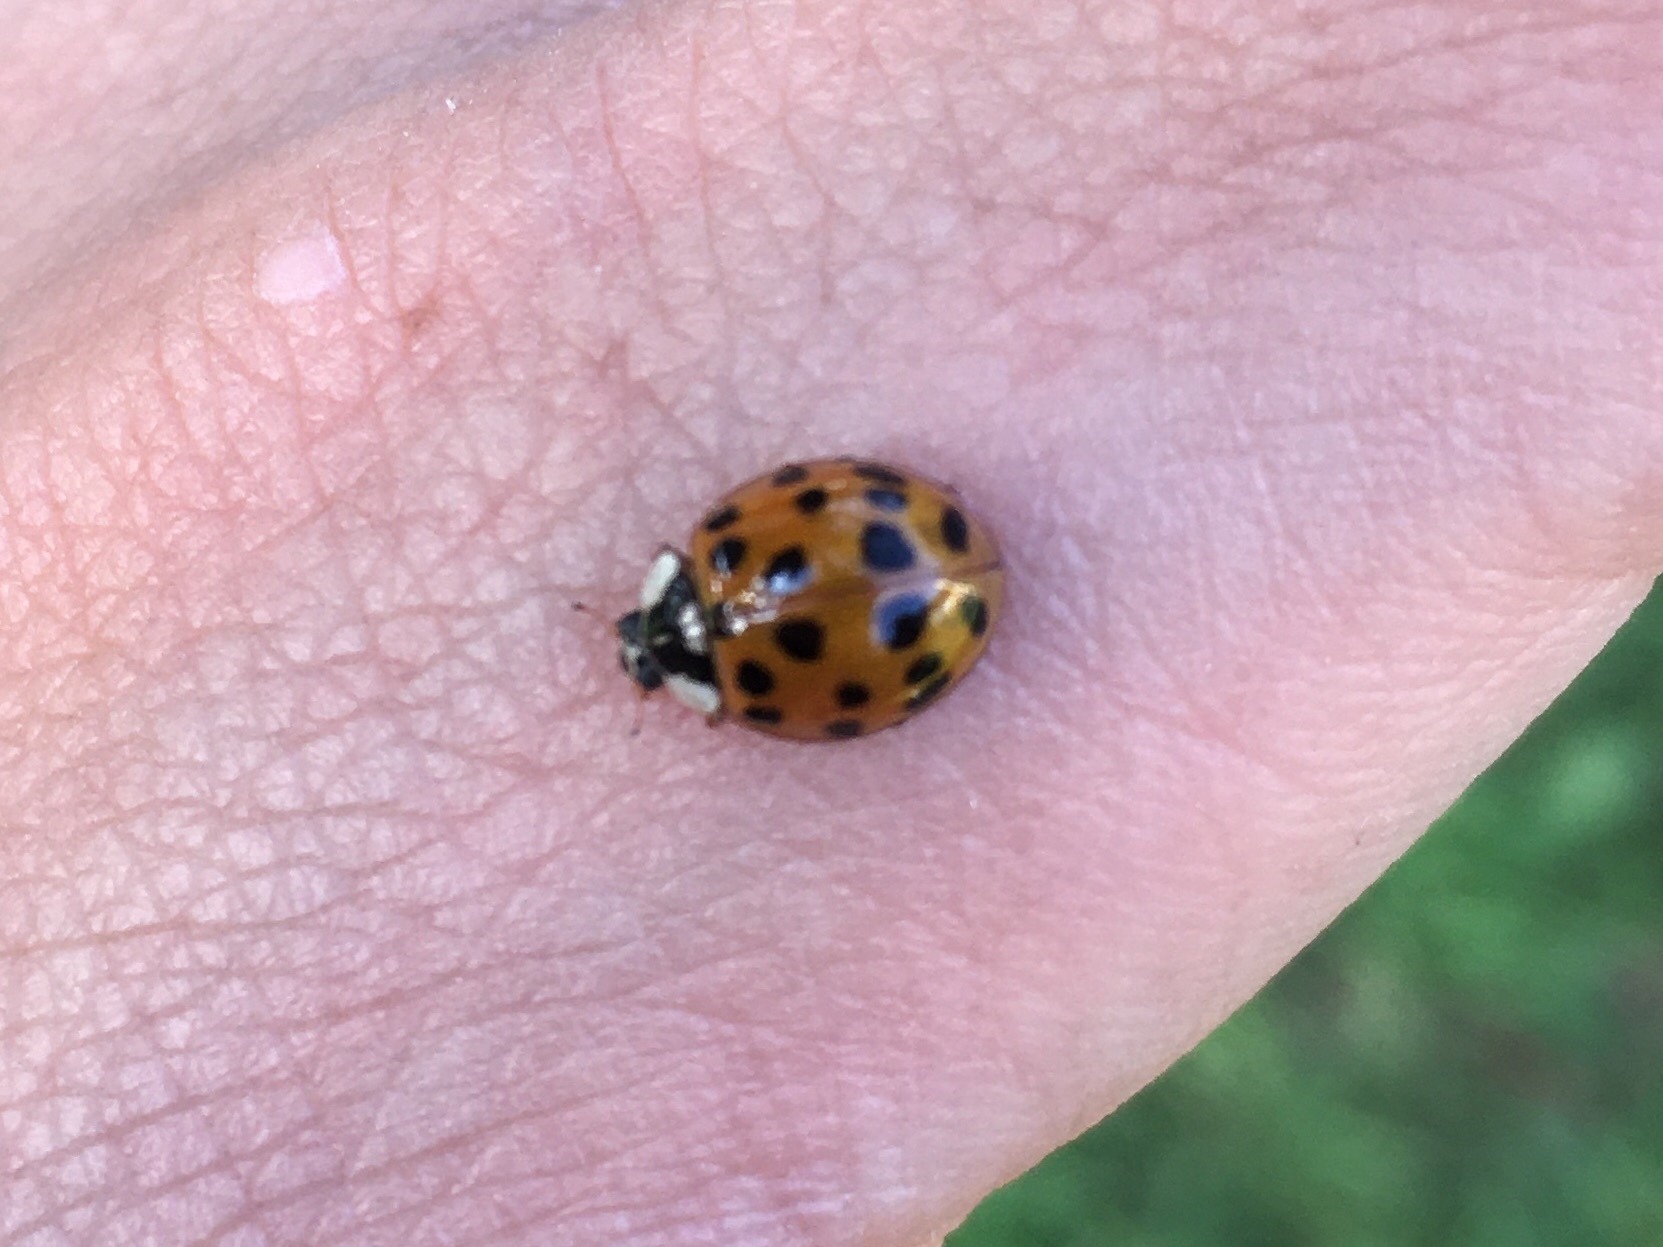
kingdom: Animalia
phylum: Arthropoda
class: Insecta
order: Coleoptera
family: Coccinellidae
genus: Harmonia
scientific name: Harmonia axyridis
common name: Harlequin ladybird
